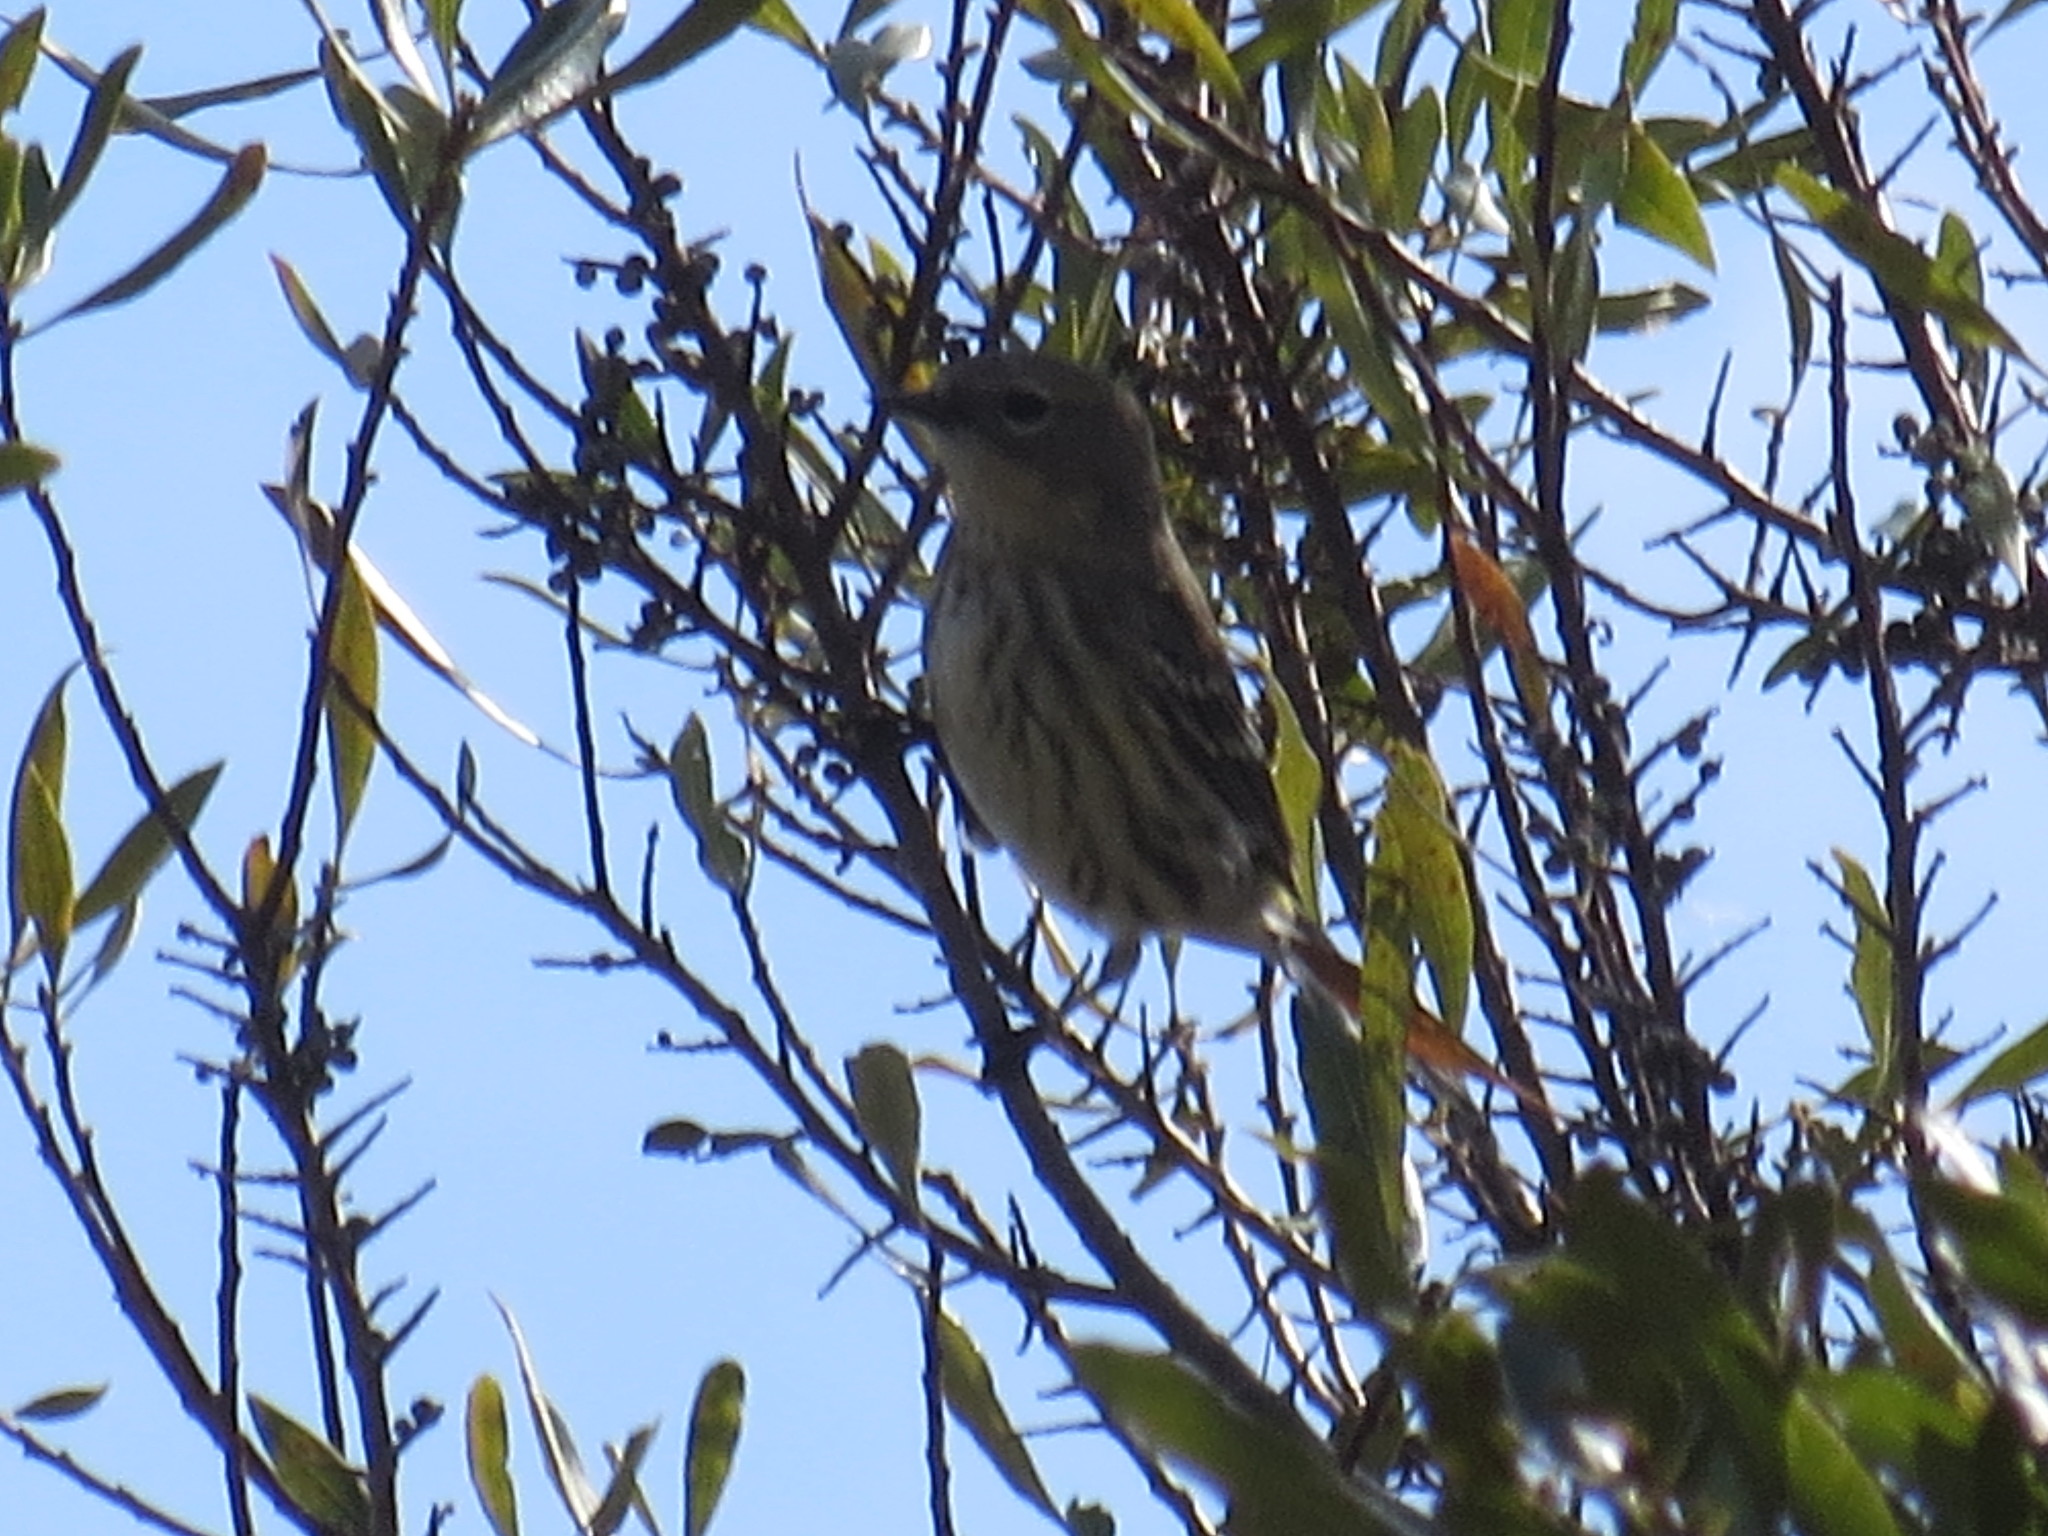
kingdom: Animalia
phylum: Chordata
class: Aves
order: Passeriformes
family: Parulidae
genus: Setophaga
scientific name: Setophaga coronata
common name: Myrtle warbler
